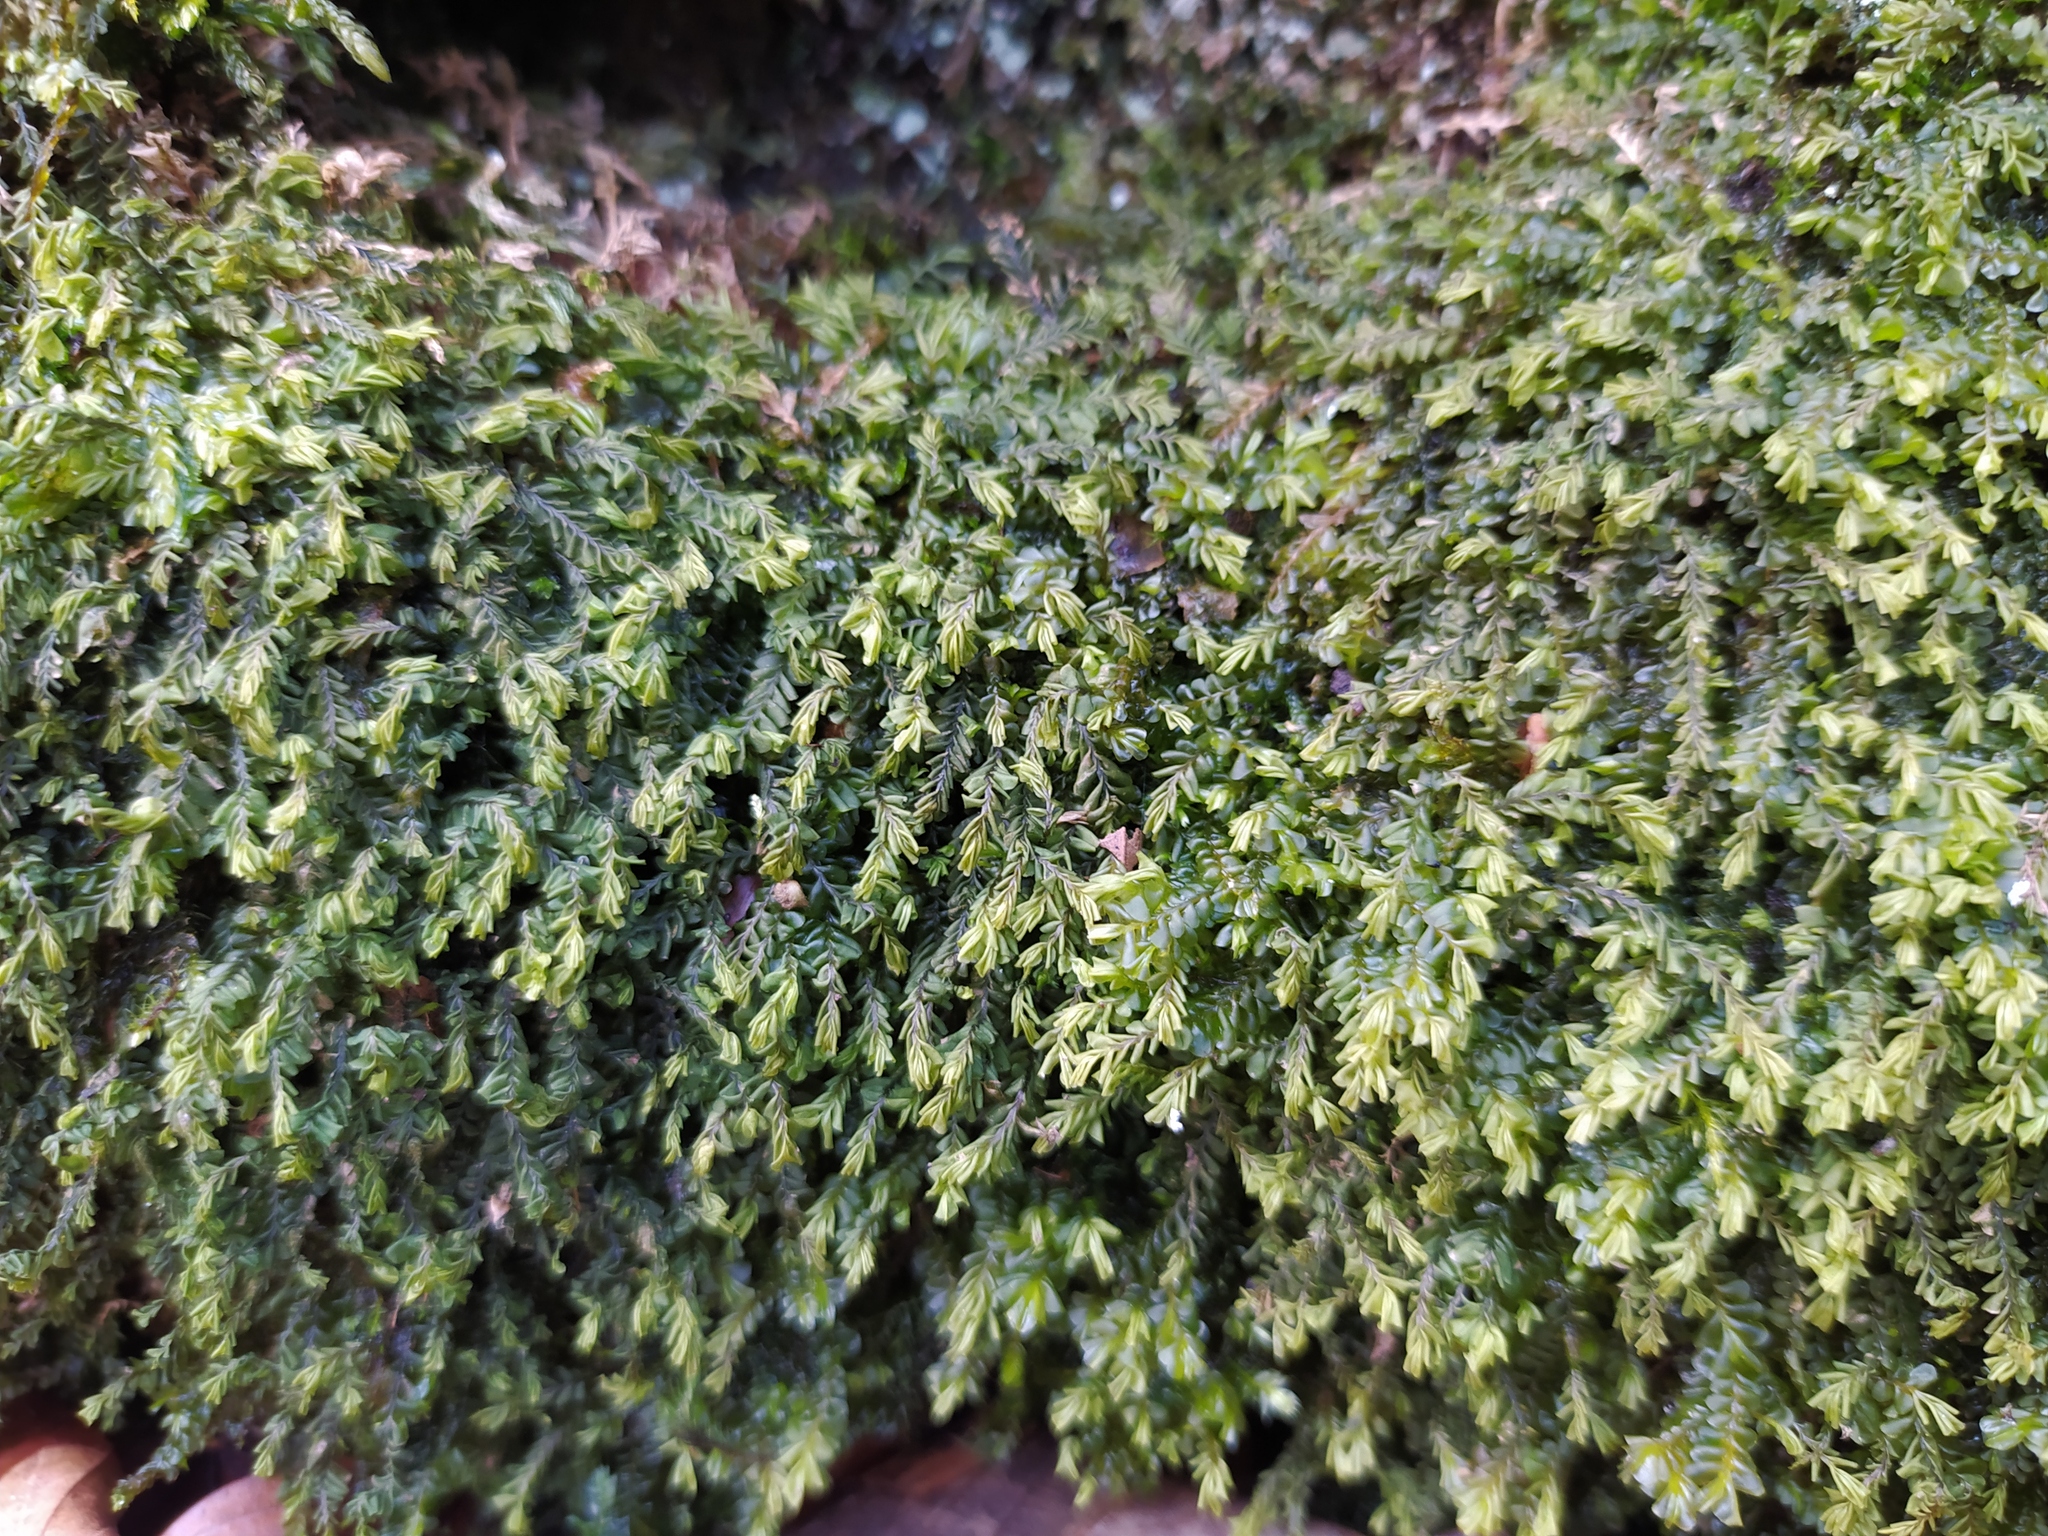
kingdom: Plantae
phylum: Marchantiophyta
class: Jungermanniopsida
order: Jungermanniales
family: Plagiochilaceae
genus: Plagiochila
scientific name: Plagiochila porelloides
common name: Lesser featherwort
